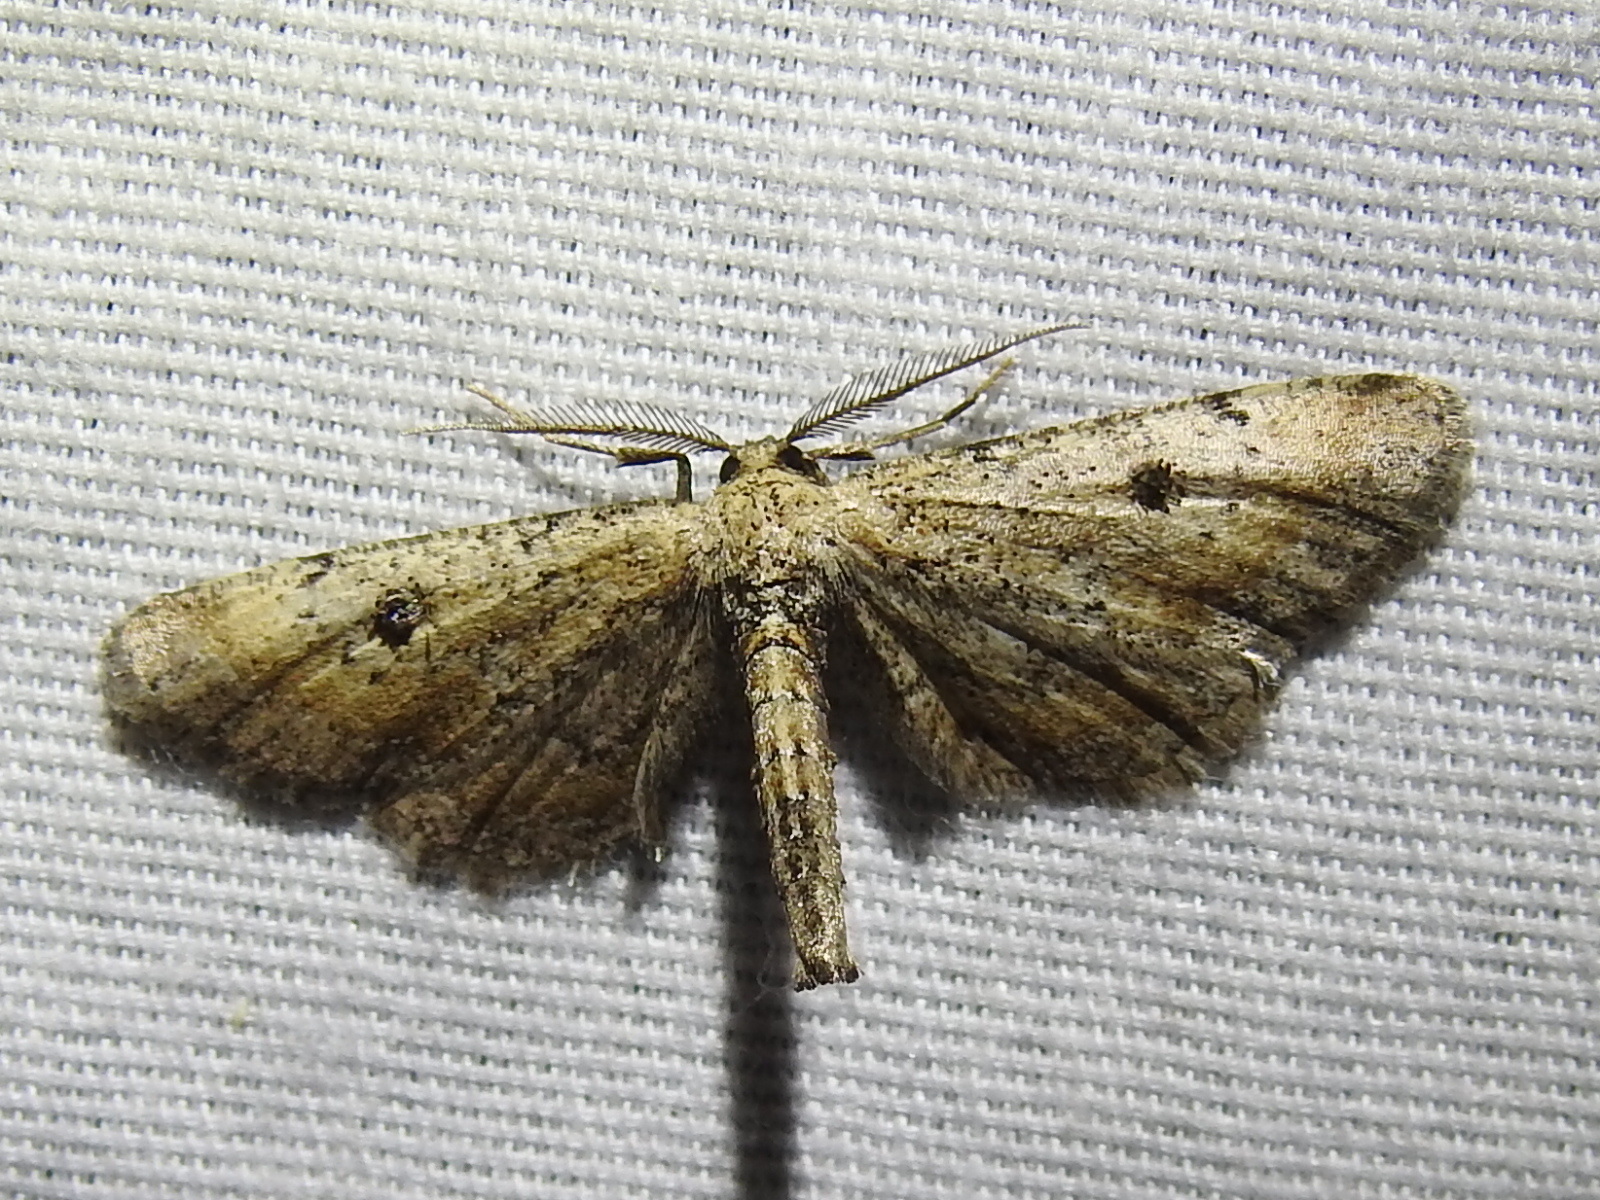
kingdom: Animalia
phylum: Arthropoda
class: Insecta
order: Lepidoptera
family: Geometridae
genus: Tornos
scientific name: Tornos scolopacinaria
